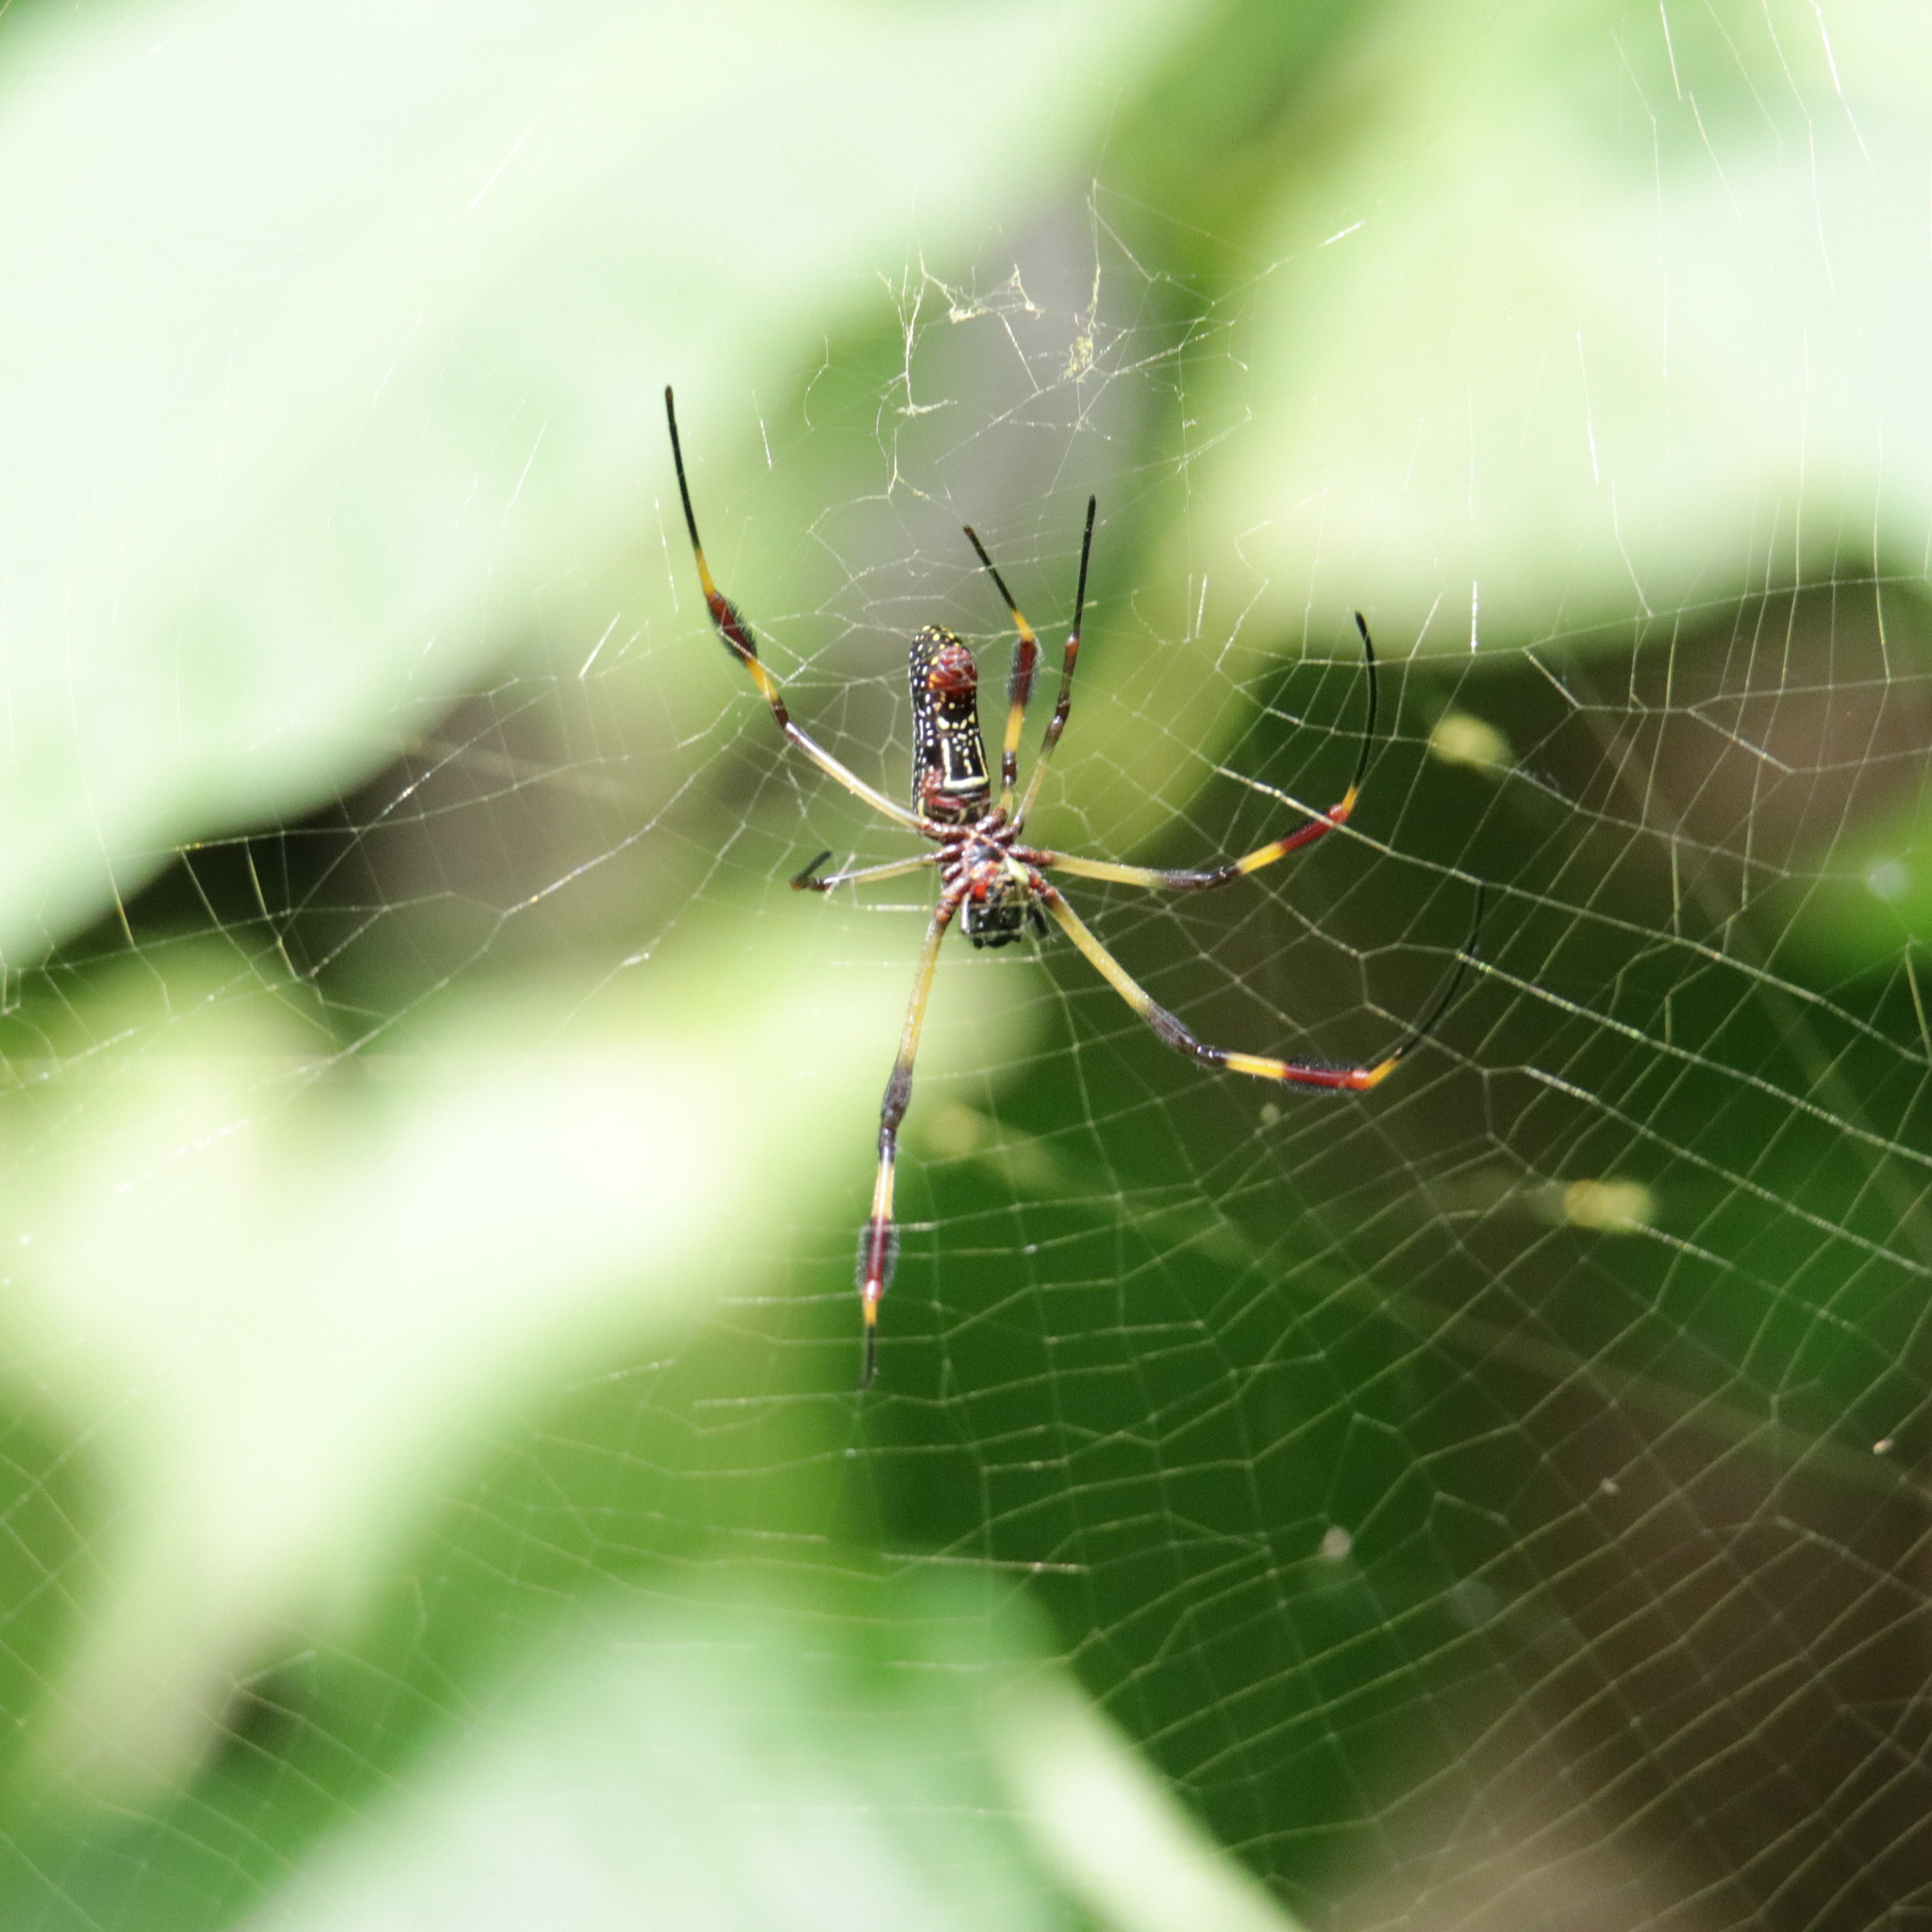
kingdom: Animalia
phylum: Arthropoda
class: Arachnida
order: Araneae
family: Araneidae
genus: Trichonephila
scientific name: Trichonephila clavipes
